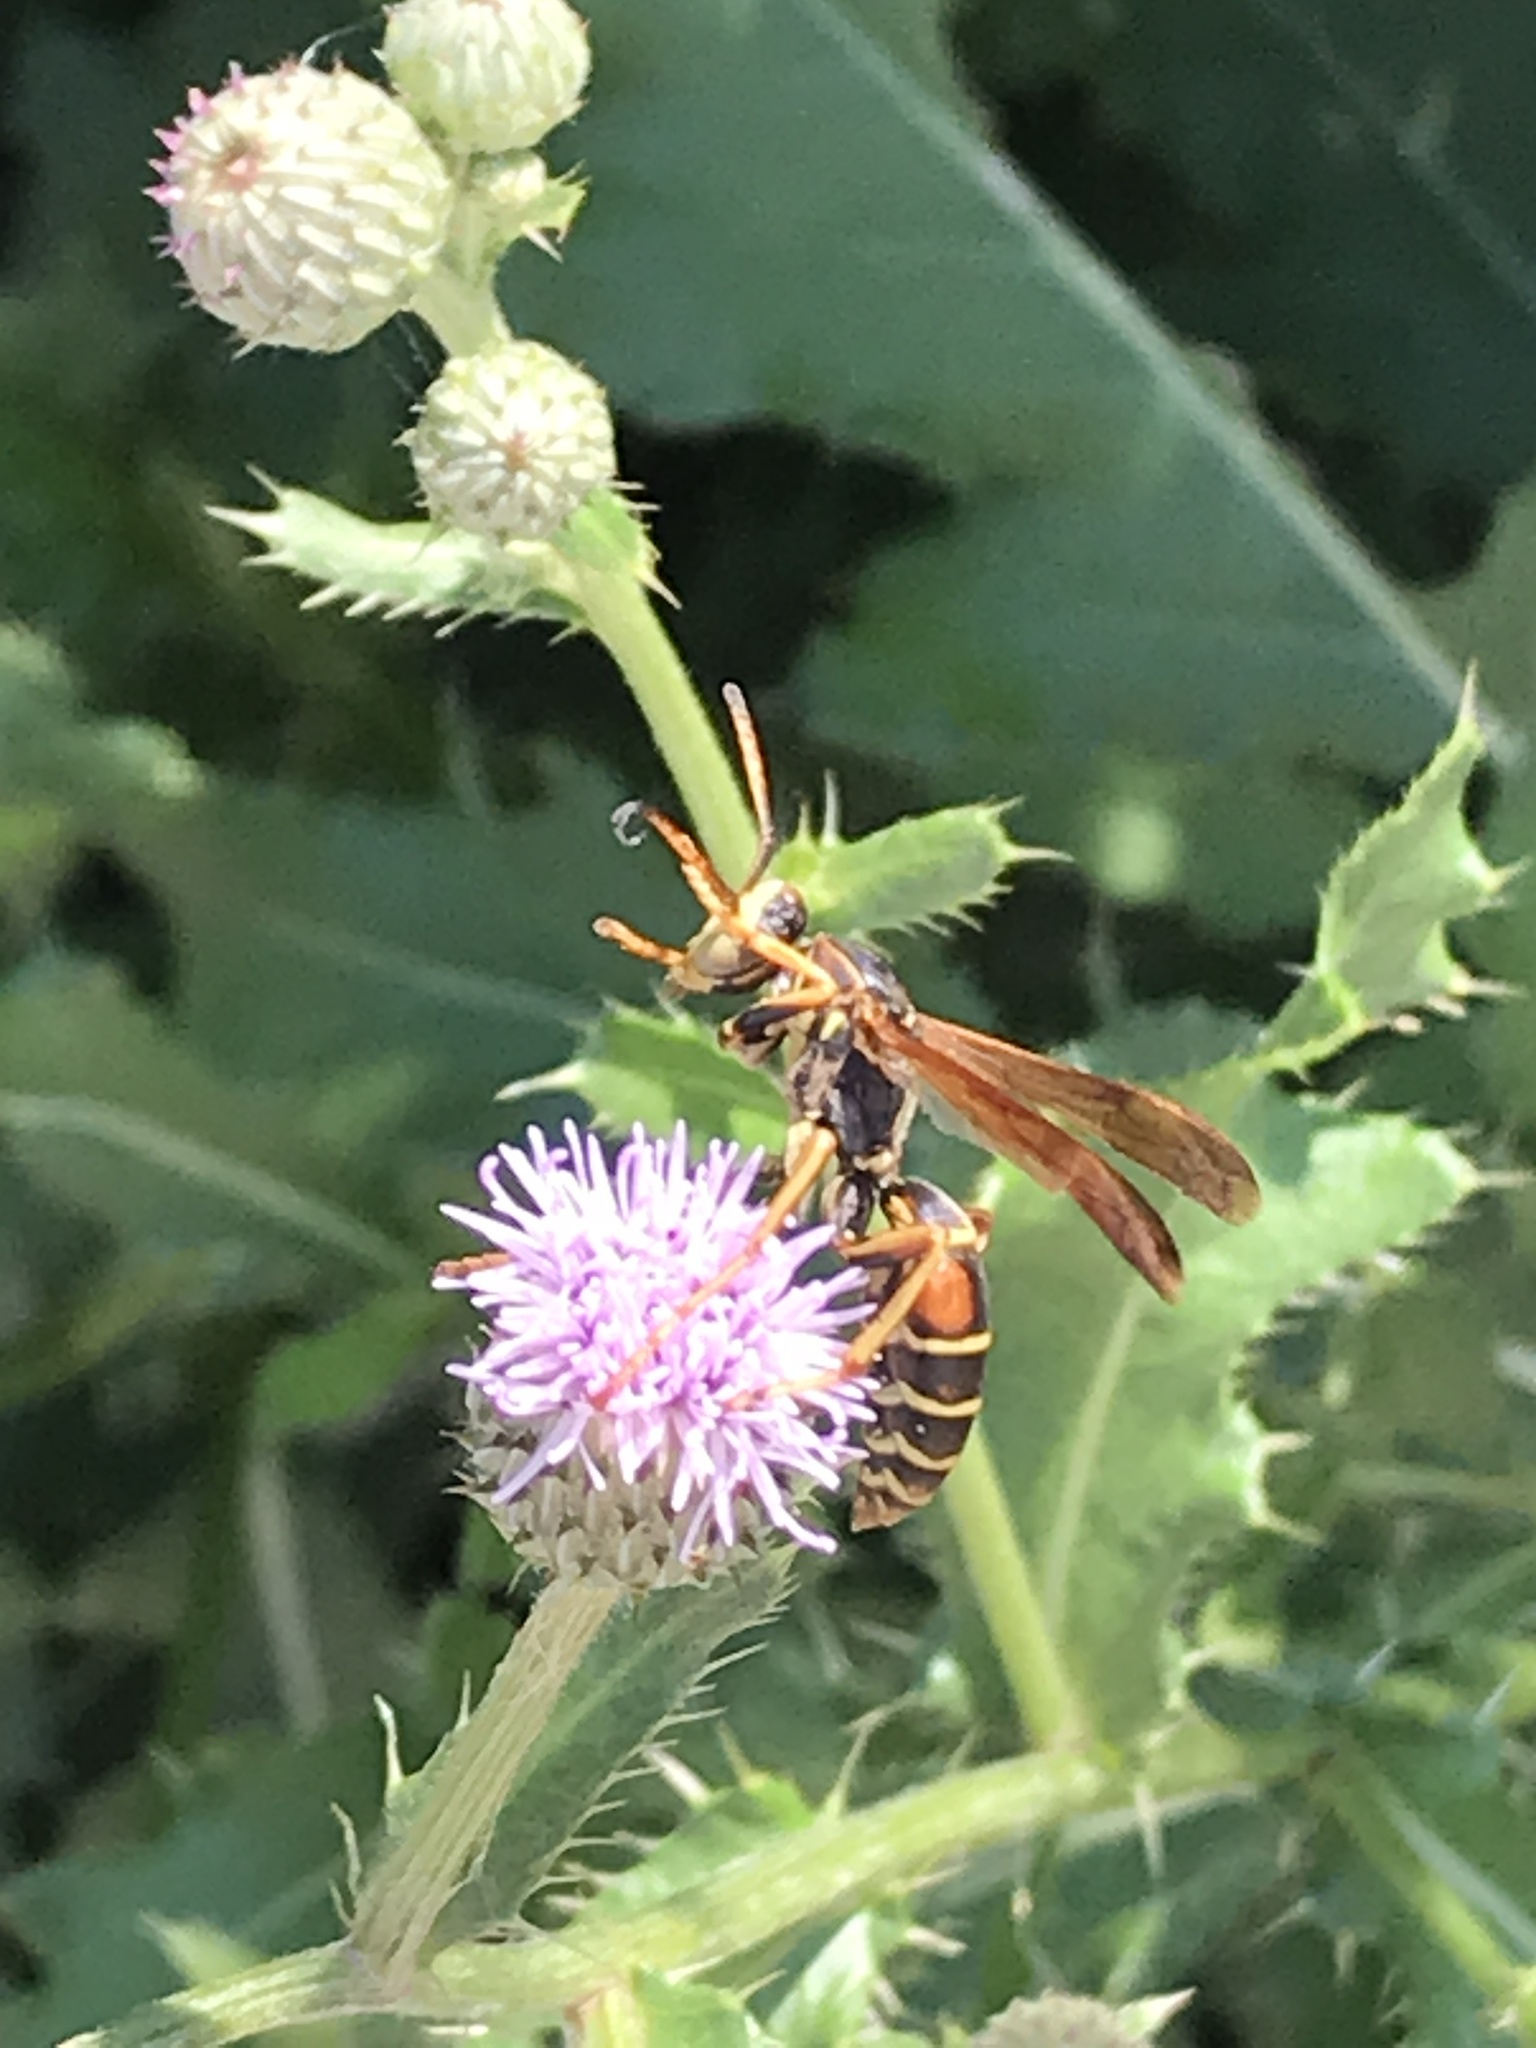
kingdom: Animalia
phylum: Arthropoda
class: Insecta
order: Hymenoptera
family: Eumenidae
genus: Polistes
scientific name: Polistes fuscatus
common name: Dark paper wasp
